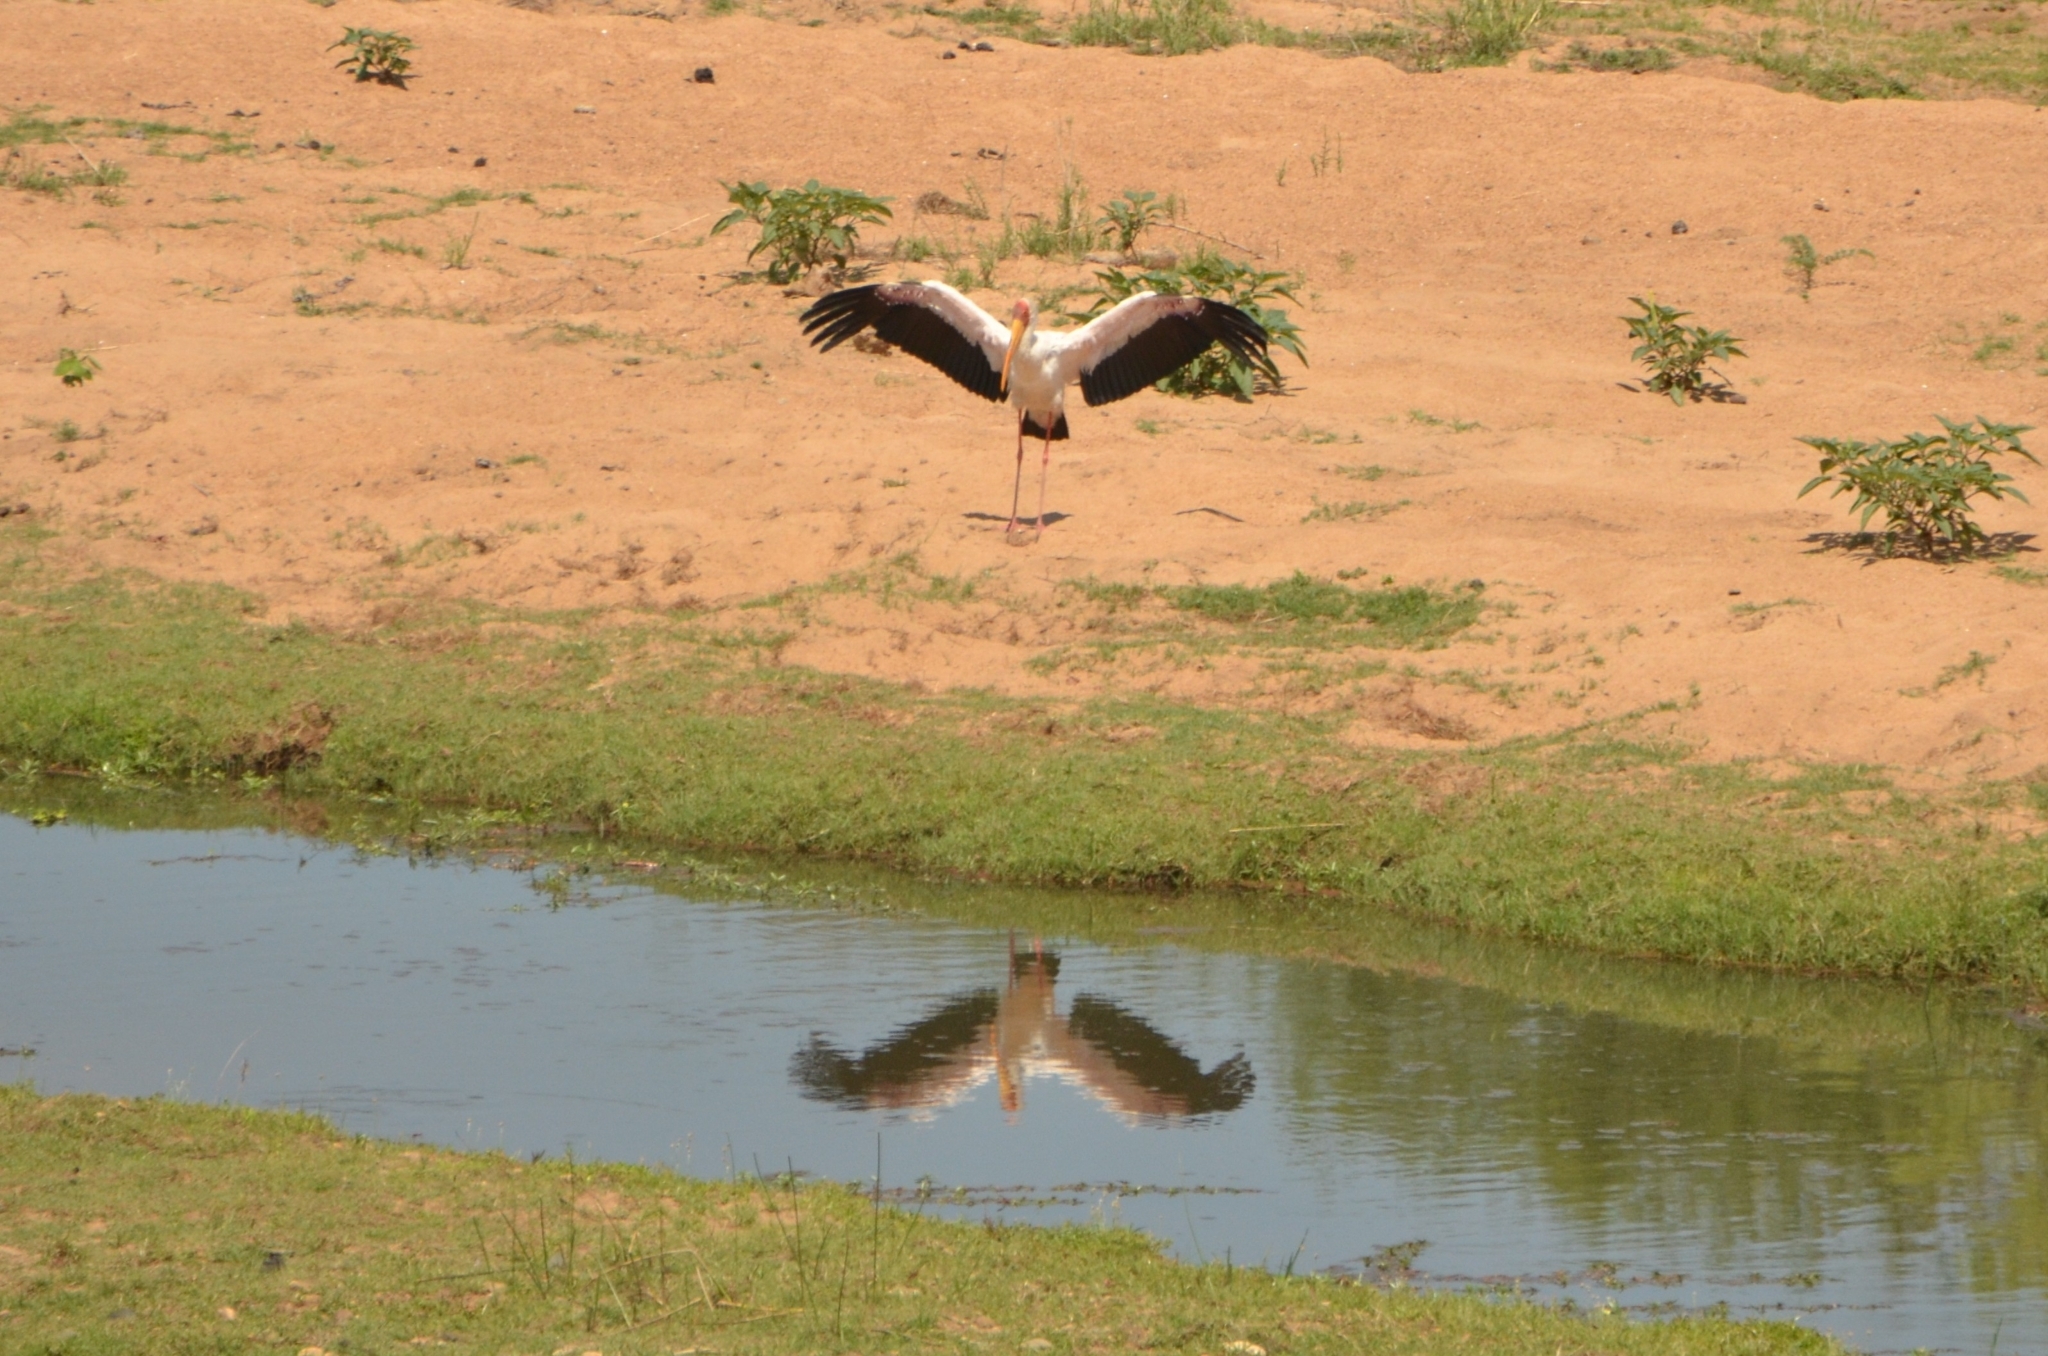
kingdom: Animalia
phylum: Chordata
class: Aves
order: Ciconiiformes
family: Ciconiidae
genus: Mycteria
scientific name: Mycteria ibis
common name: Yellow-billed stork
